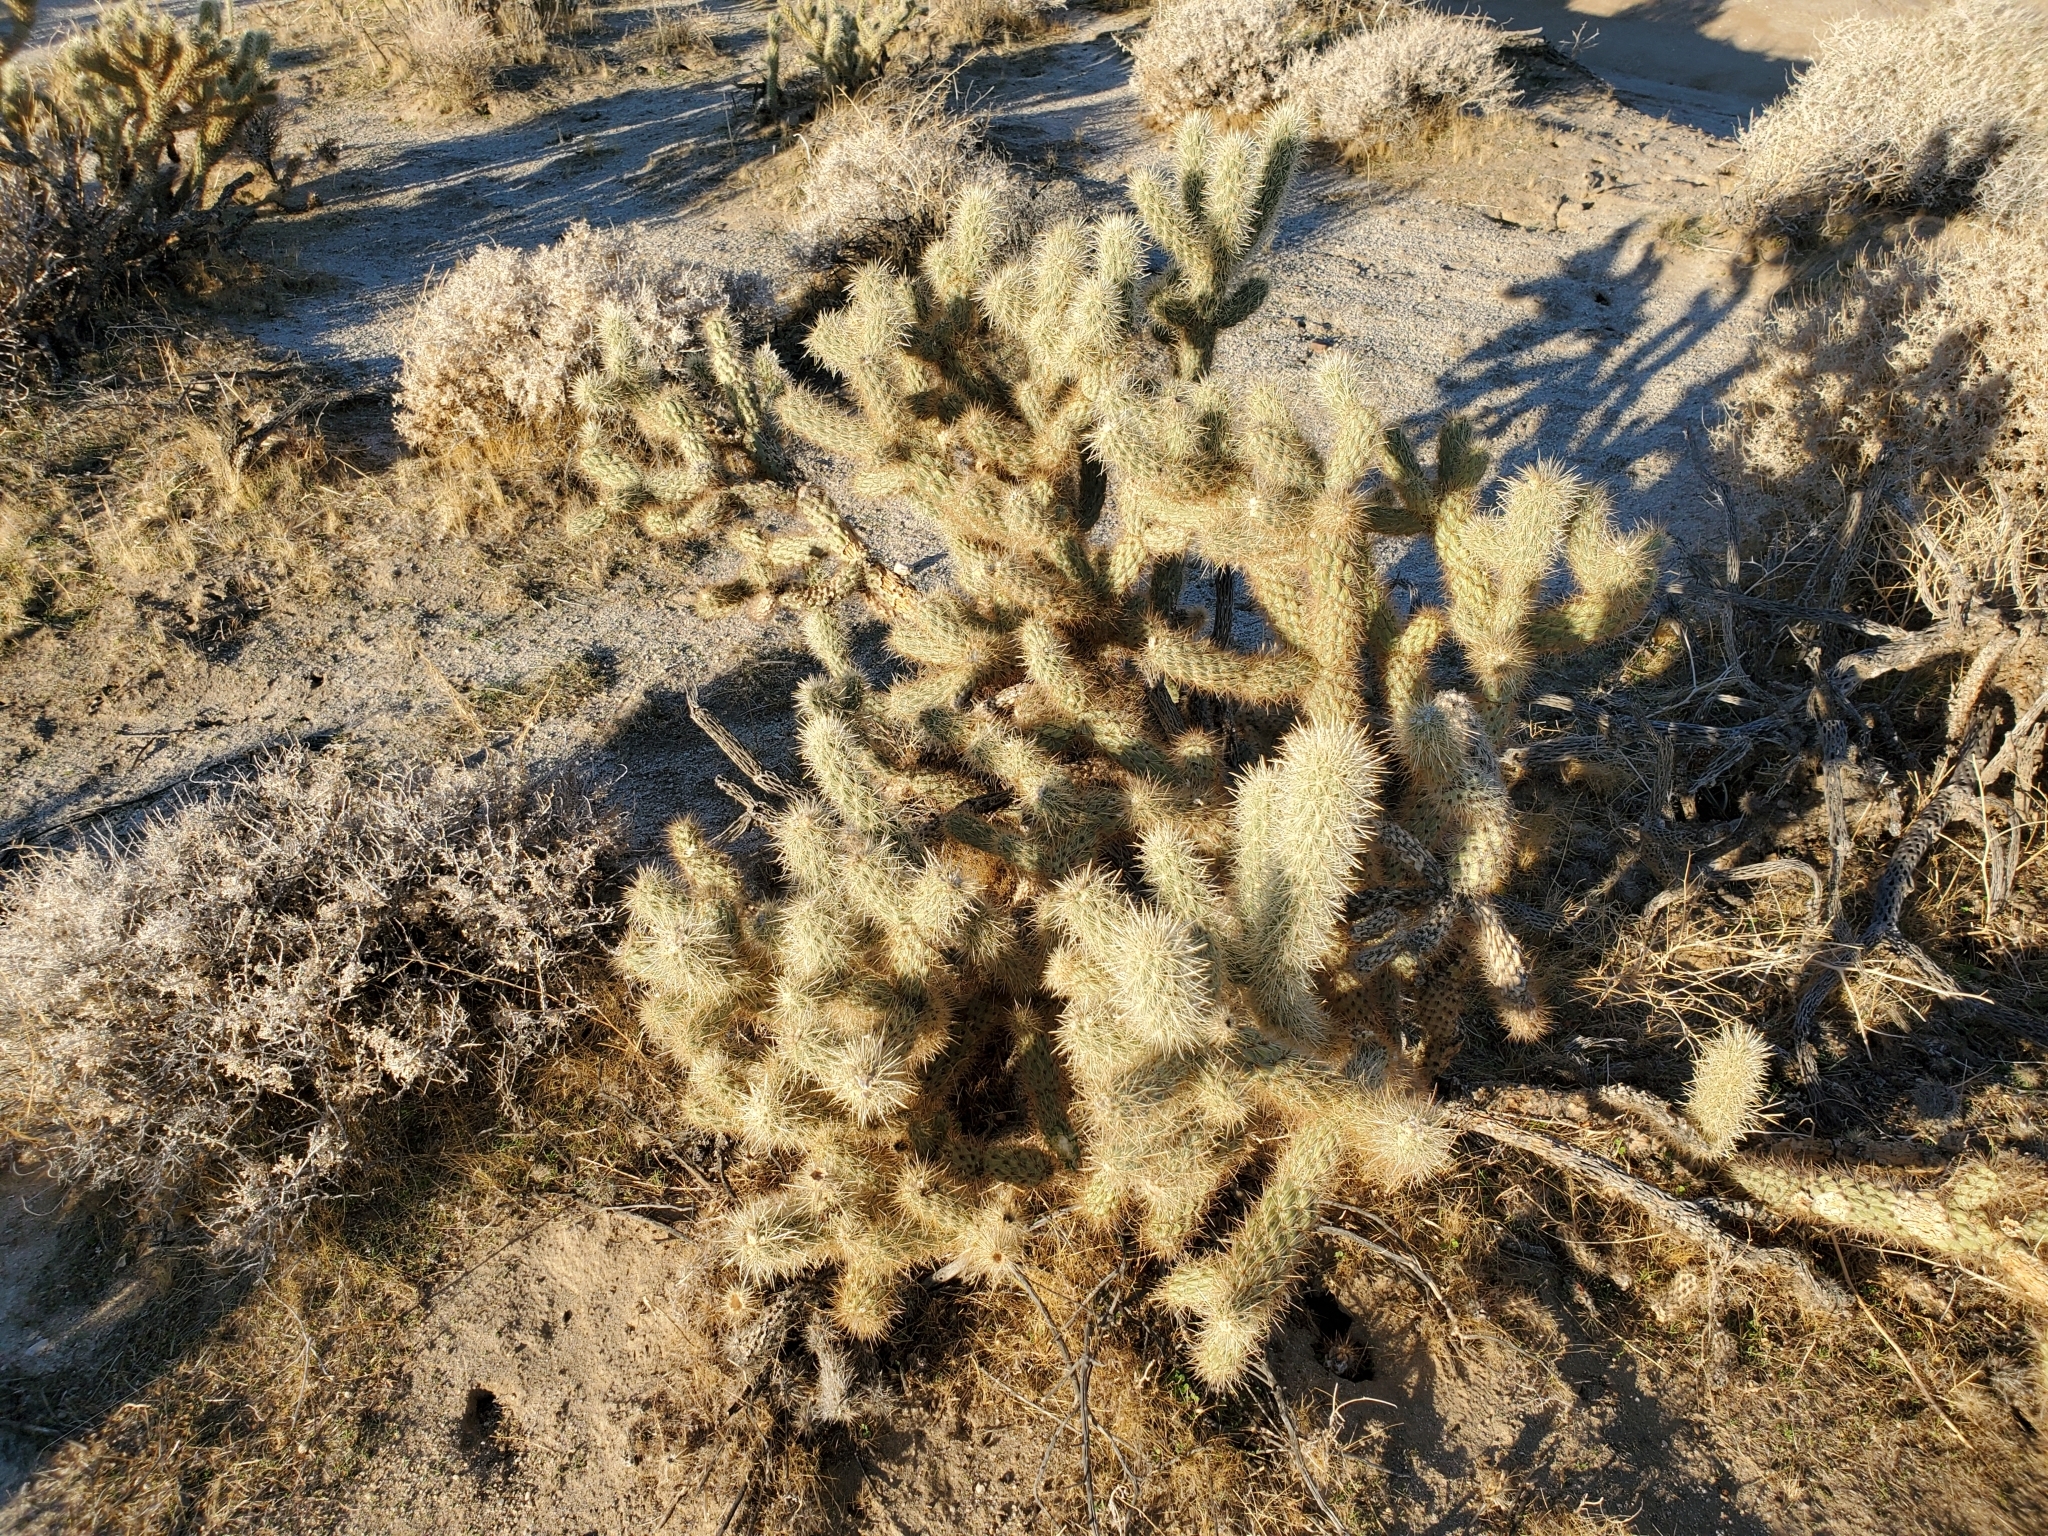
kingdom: Plantae
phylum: Tracheophyta
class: Magnoliopsida
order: Caryophyllales
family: Cactaceae
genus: Cylindropuntia
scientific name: Cylindropuntia ganderi
